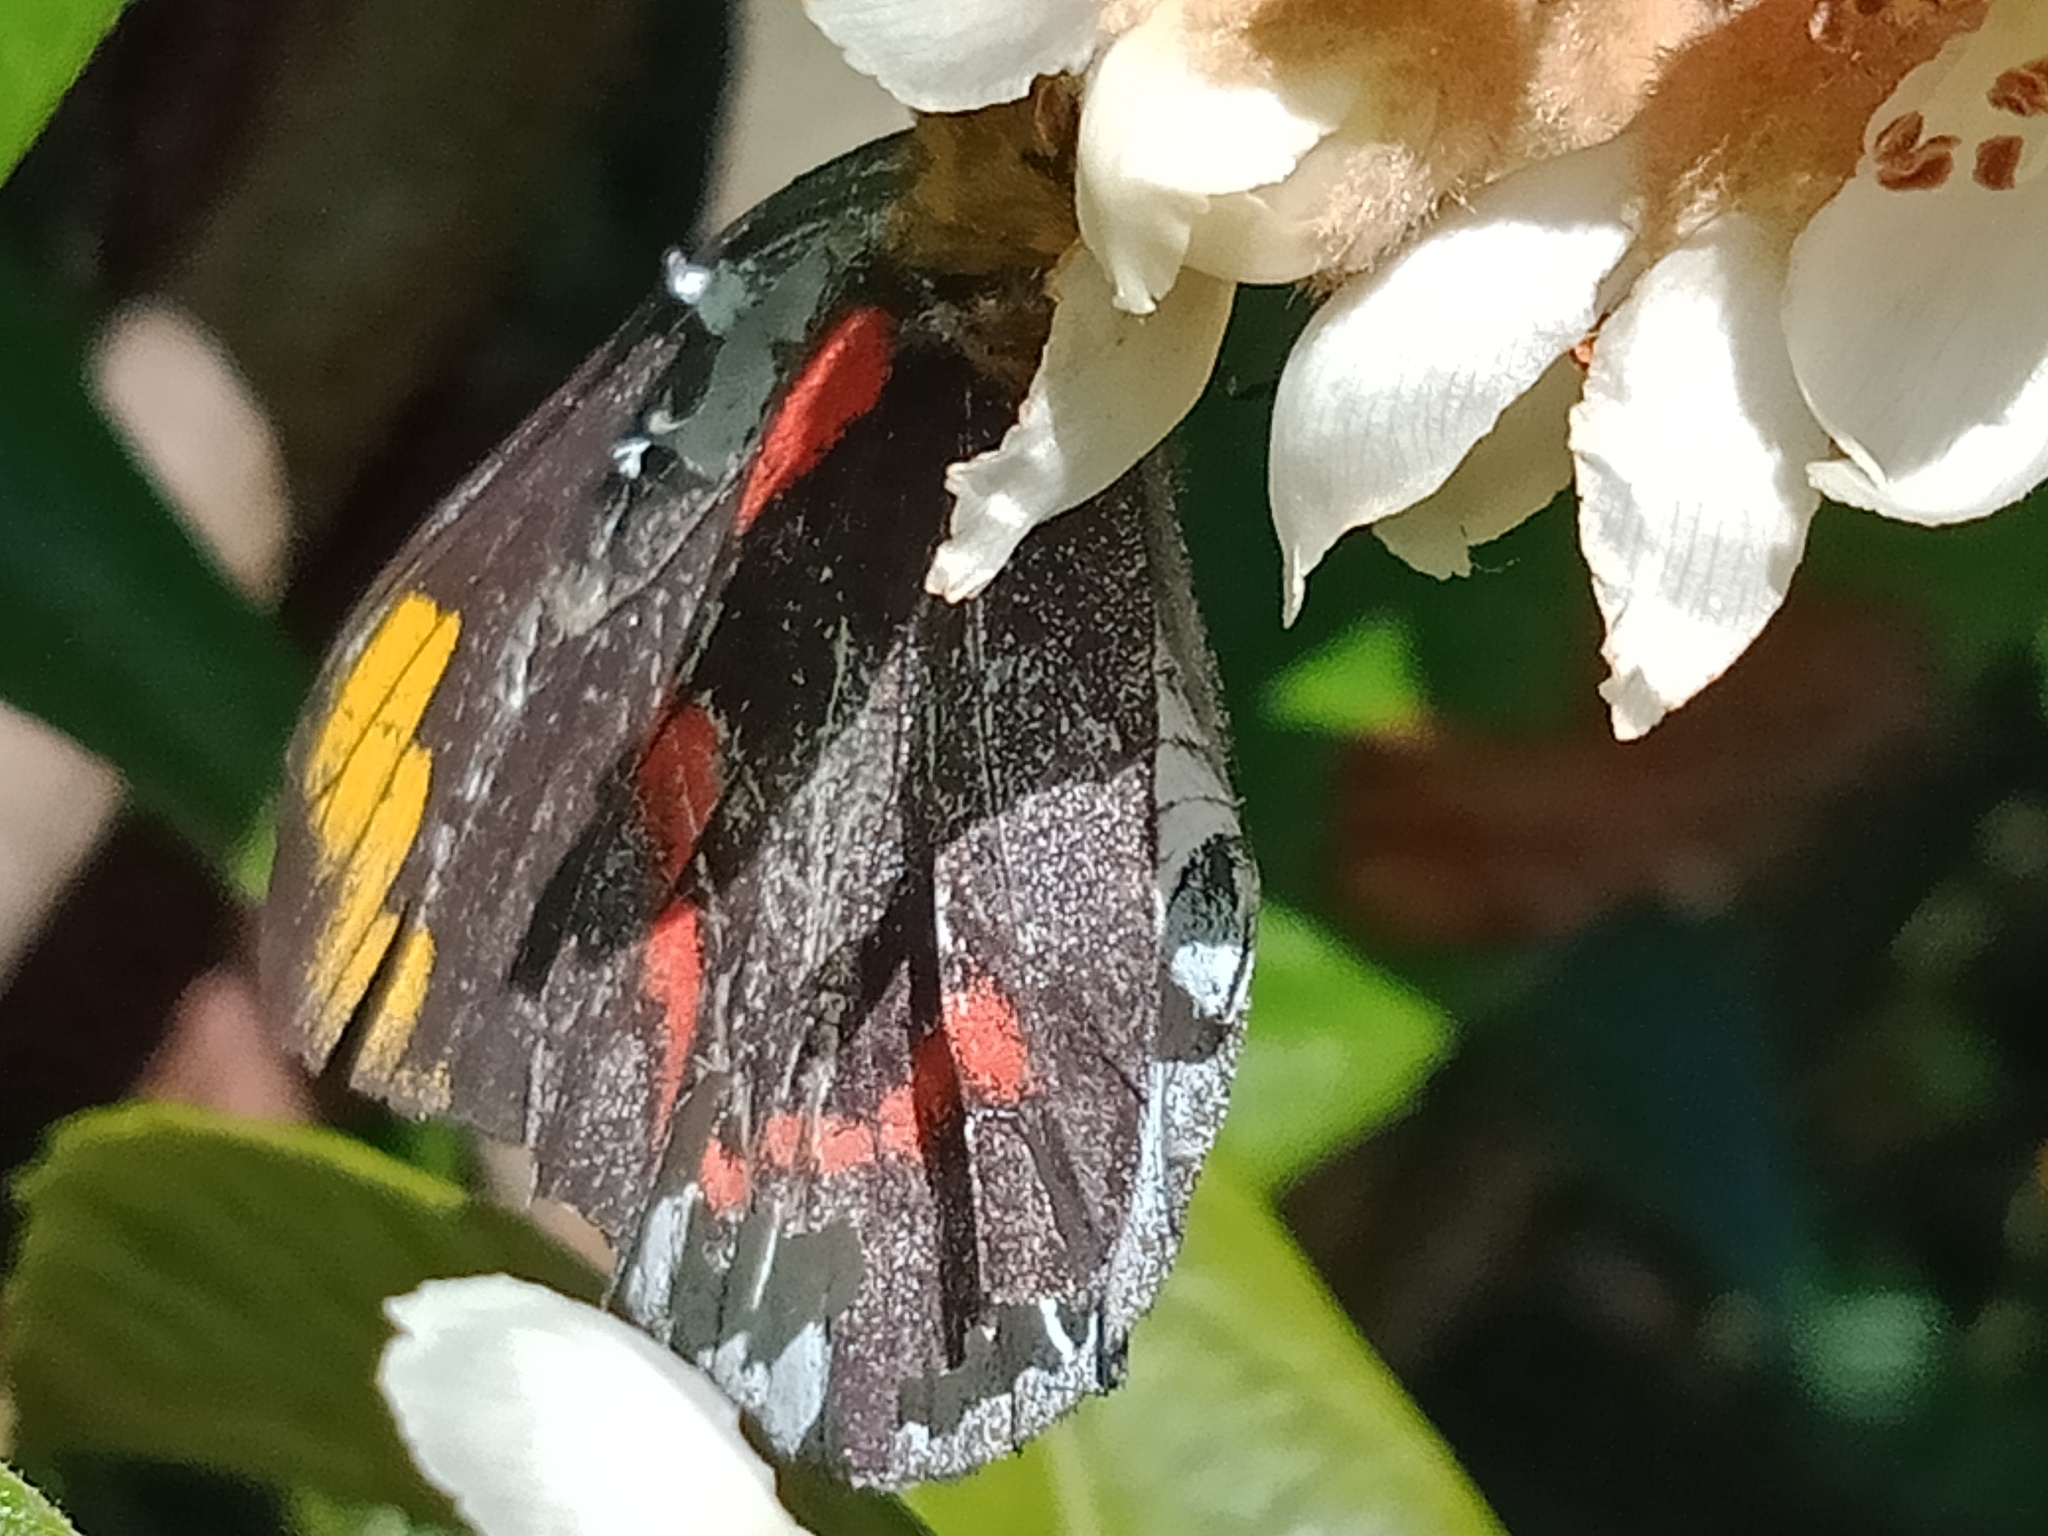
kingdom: Animalia
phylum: Arthropoda
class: Insecta
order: Lepidoptera
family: Pieridae
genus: Delias
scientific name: Delias nigrina
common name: Black jezebel
